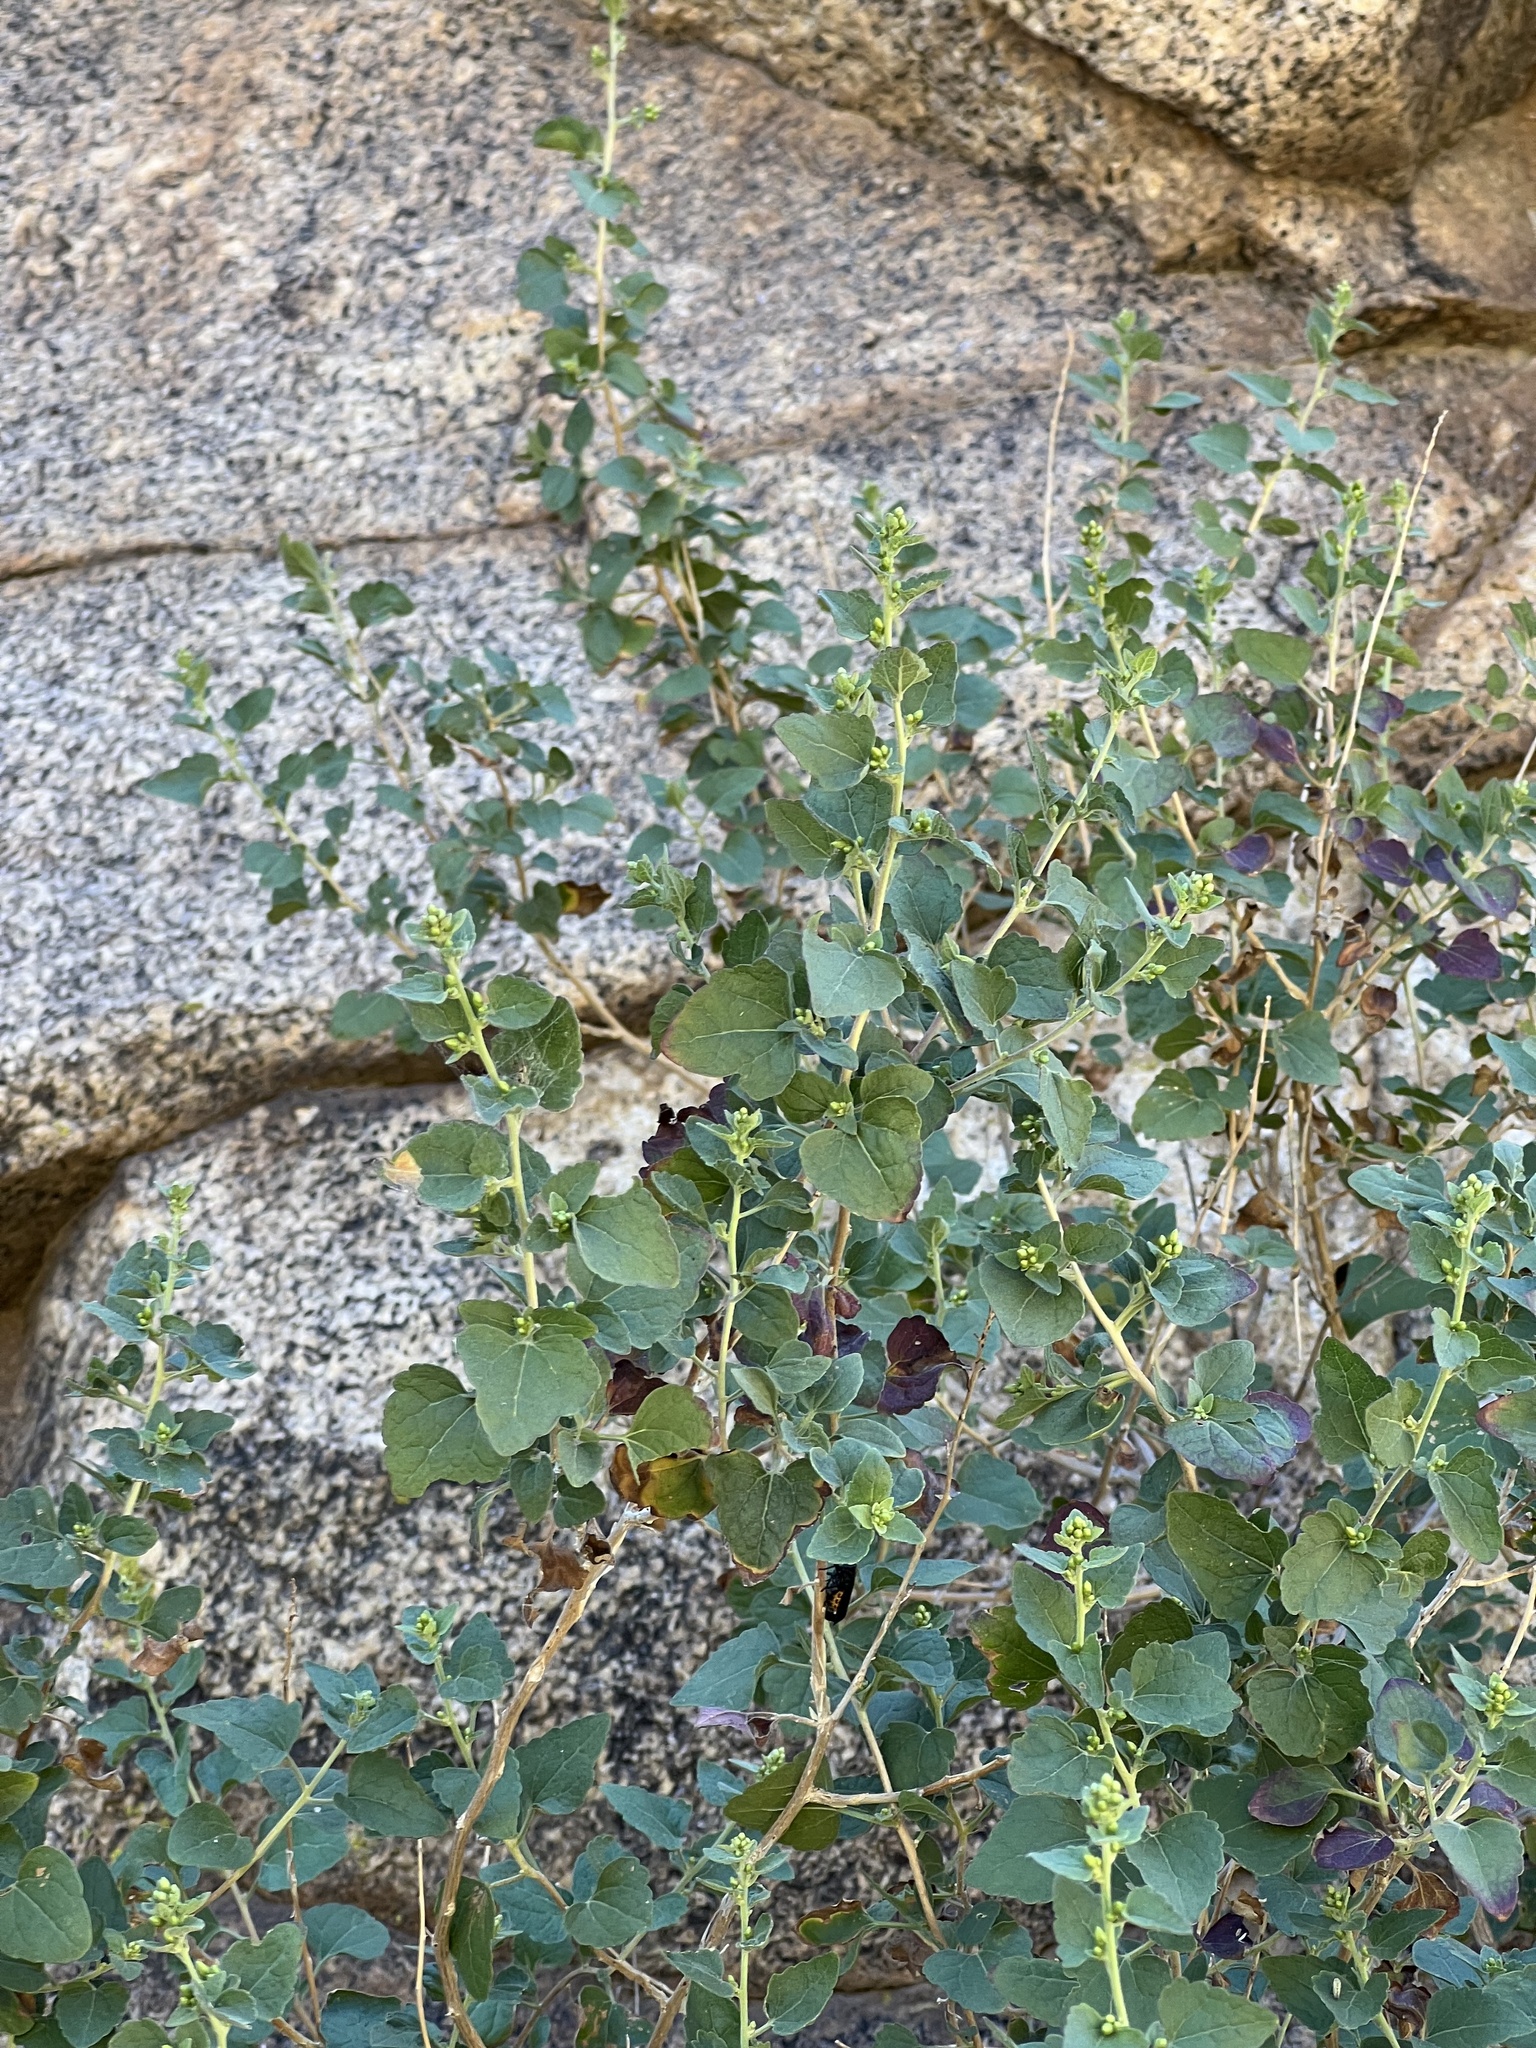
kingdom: Plantae
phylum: Tracheophyta
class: Magnoliopsida
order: Fabales
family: Fabaceae
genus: Erythrina
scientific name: Erythrina flabelliformis
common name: Chilicote
